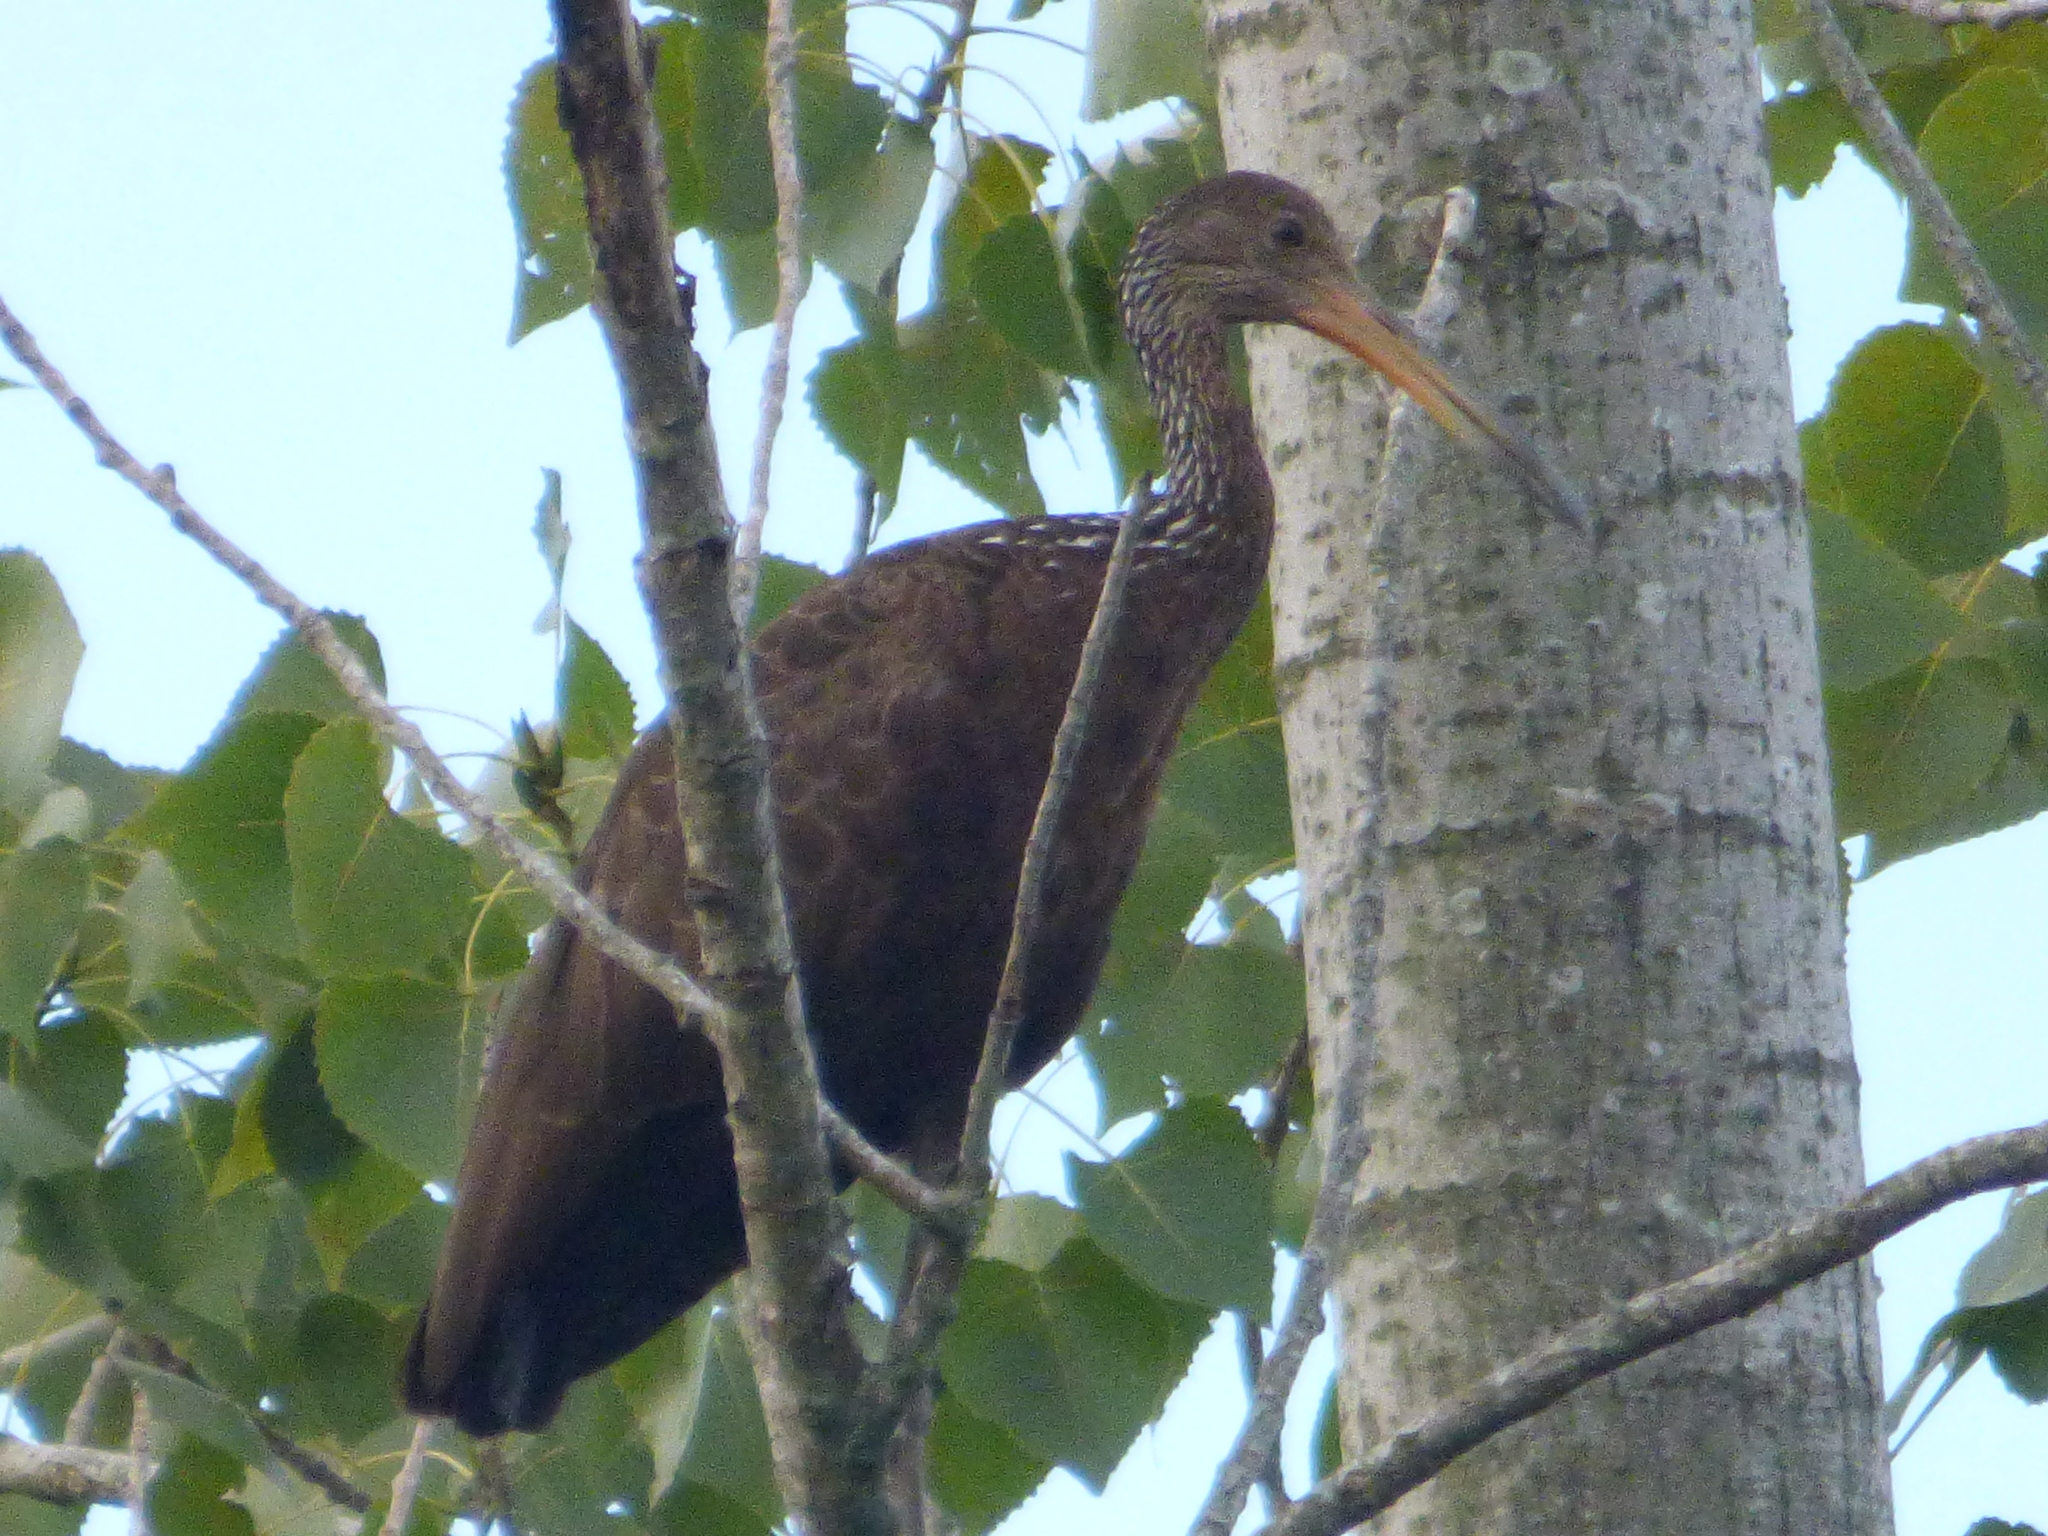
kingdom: Animalia
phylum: Chordata
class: Aves
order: Gruiformes
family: Aramidae
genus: Aramus
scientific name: Aramus guarauna
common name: Limpkin
